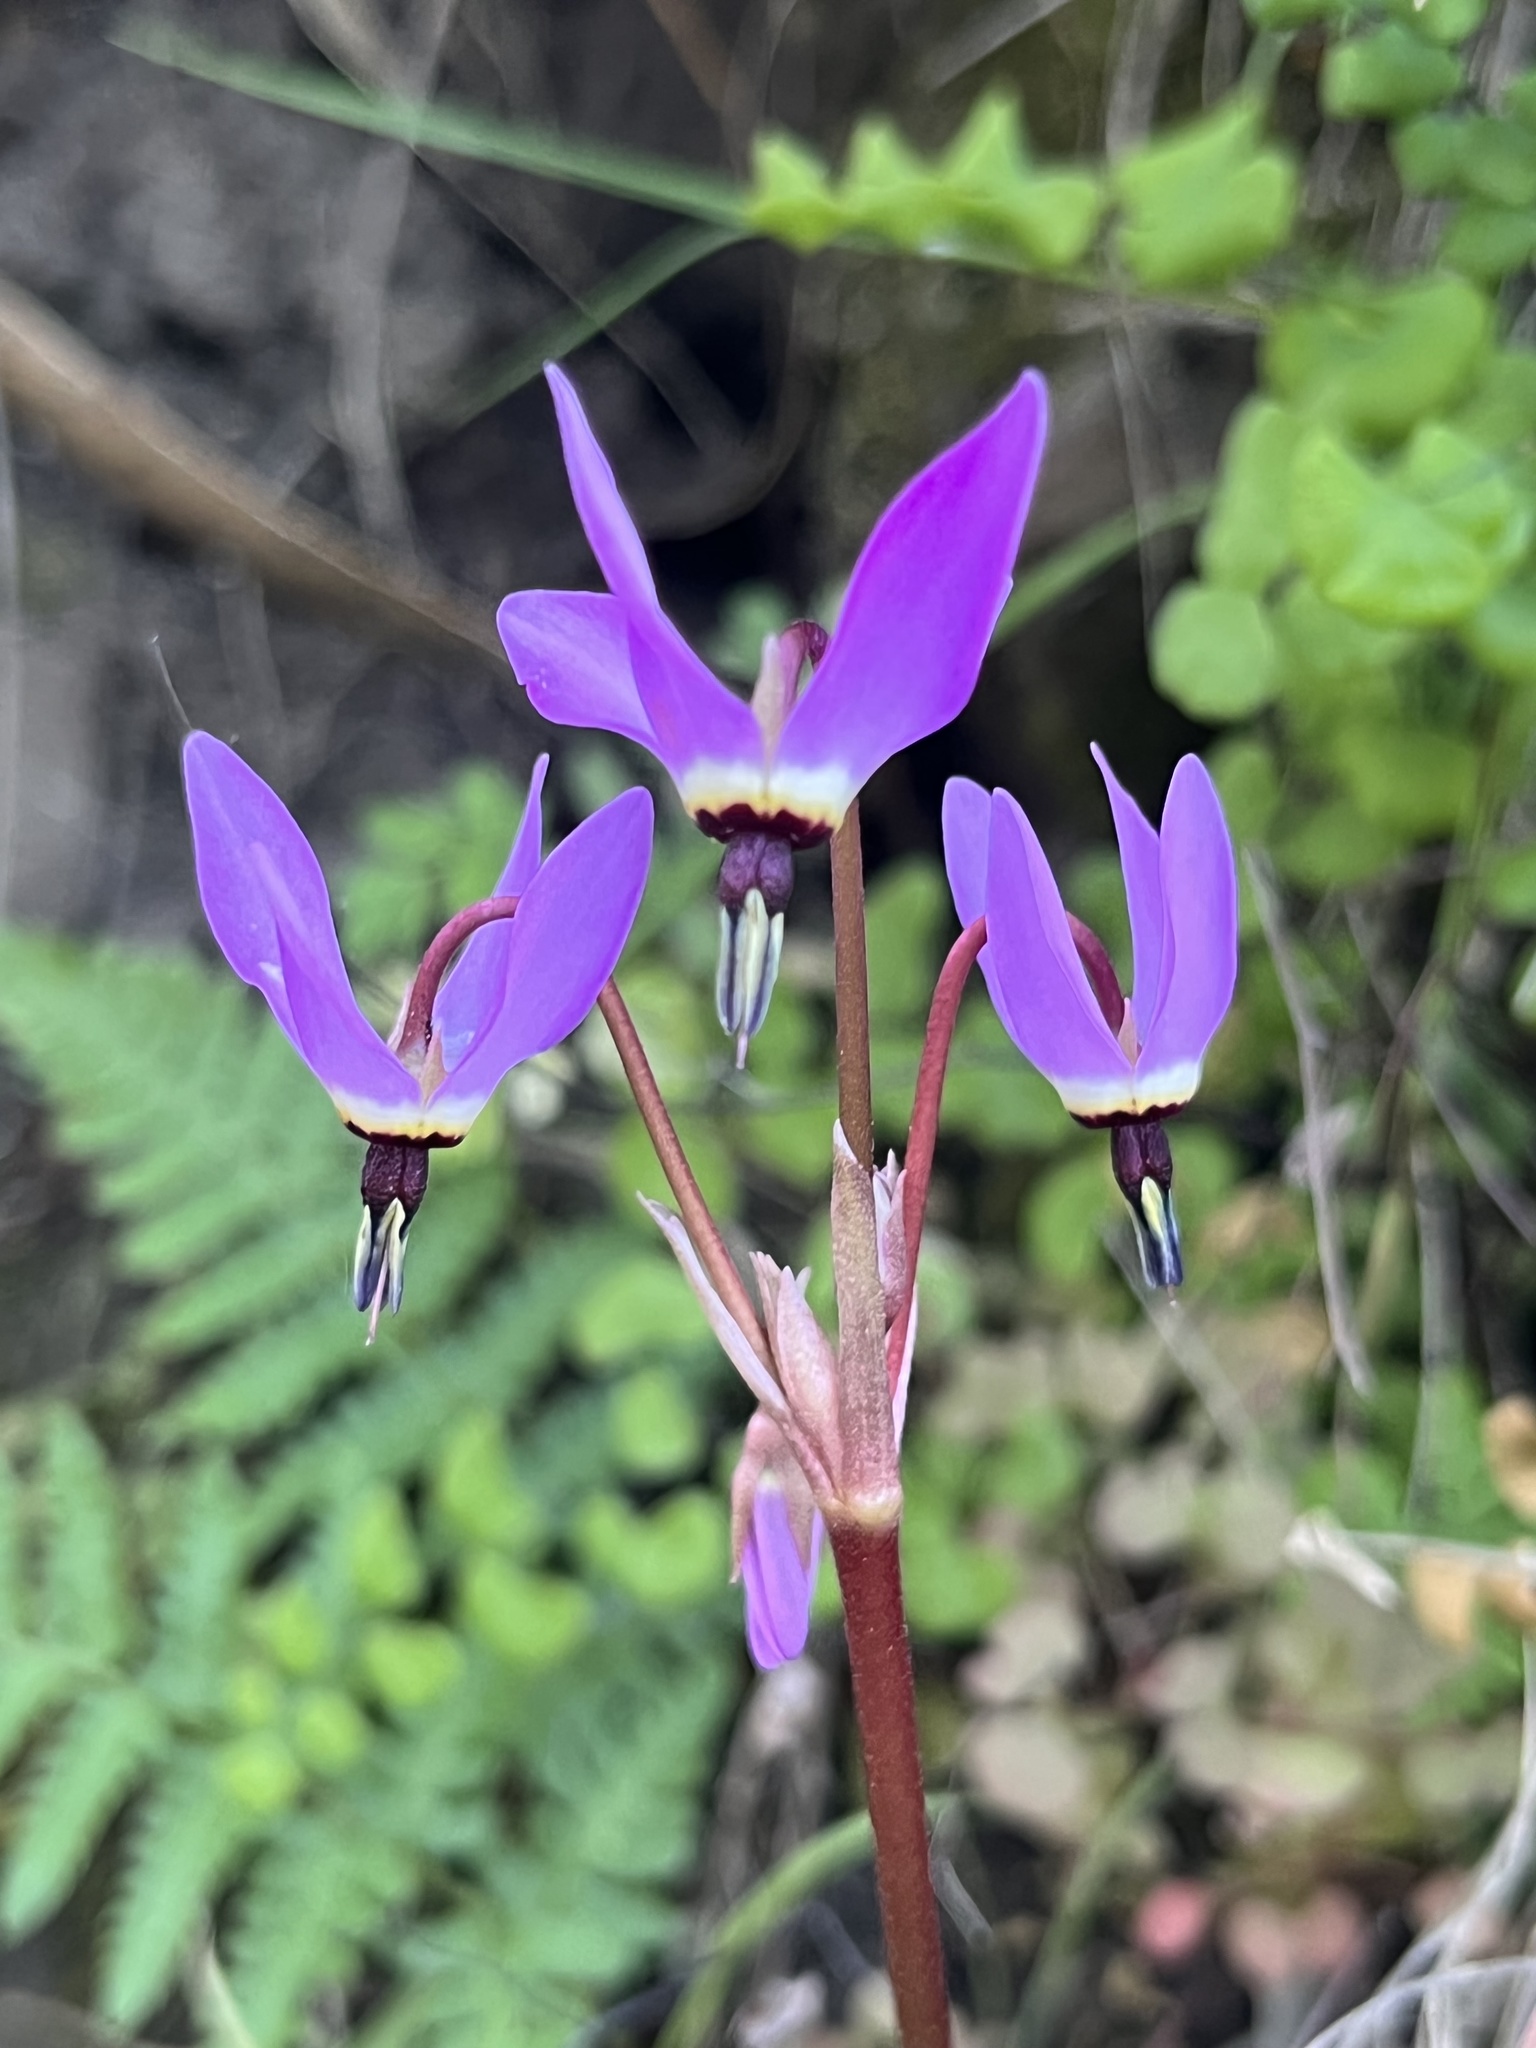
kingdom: Plantae
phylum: Tracheophyta
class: Magnoliopsida
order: Ericales
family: Primulaceae
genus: Dodecatheon
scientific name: Dodecatheon hendersonii
